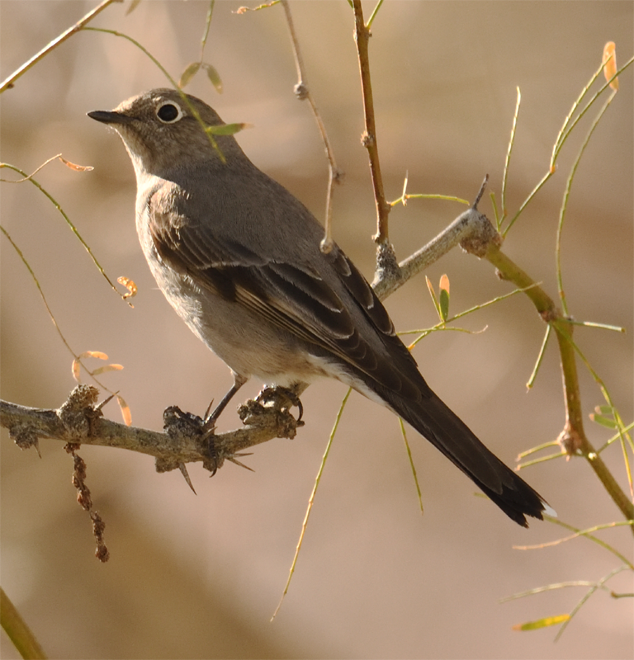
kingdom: Animalia
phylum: Chordata
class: Aves
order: Passeriformes
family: Turdidae
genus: Myadestes
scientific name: Myadestes townsendi
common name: Townsend's solitaire
